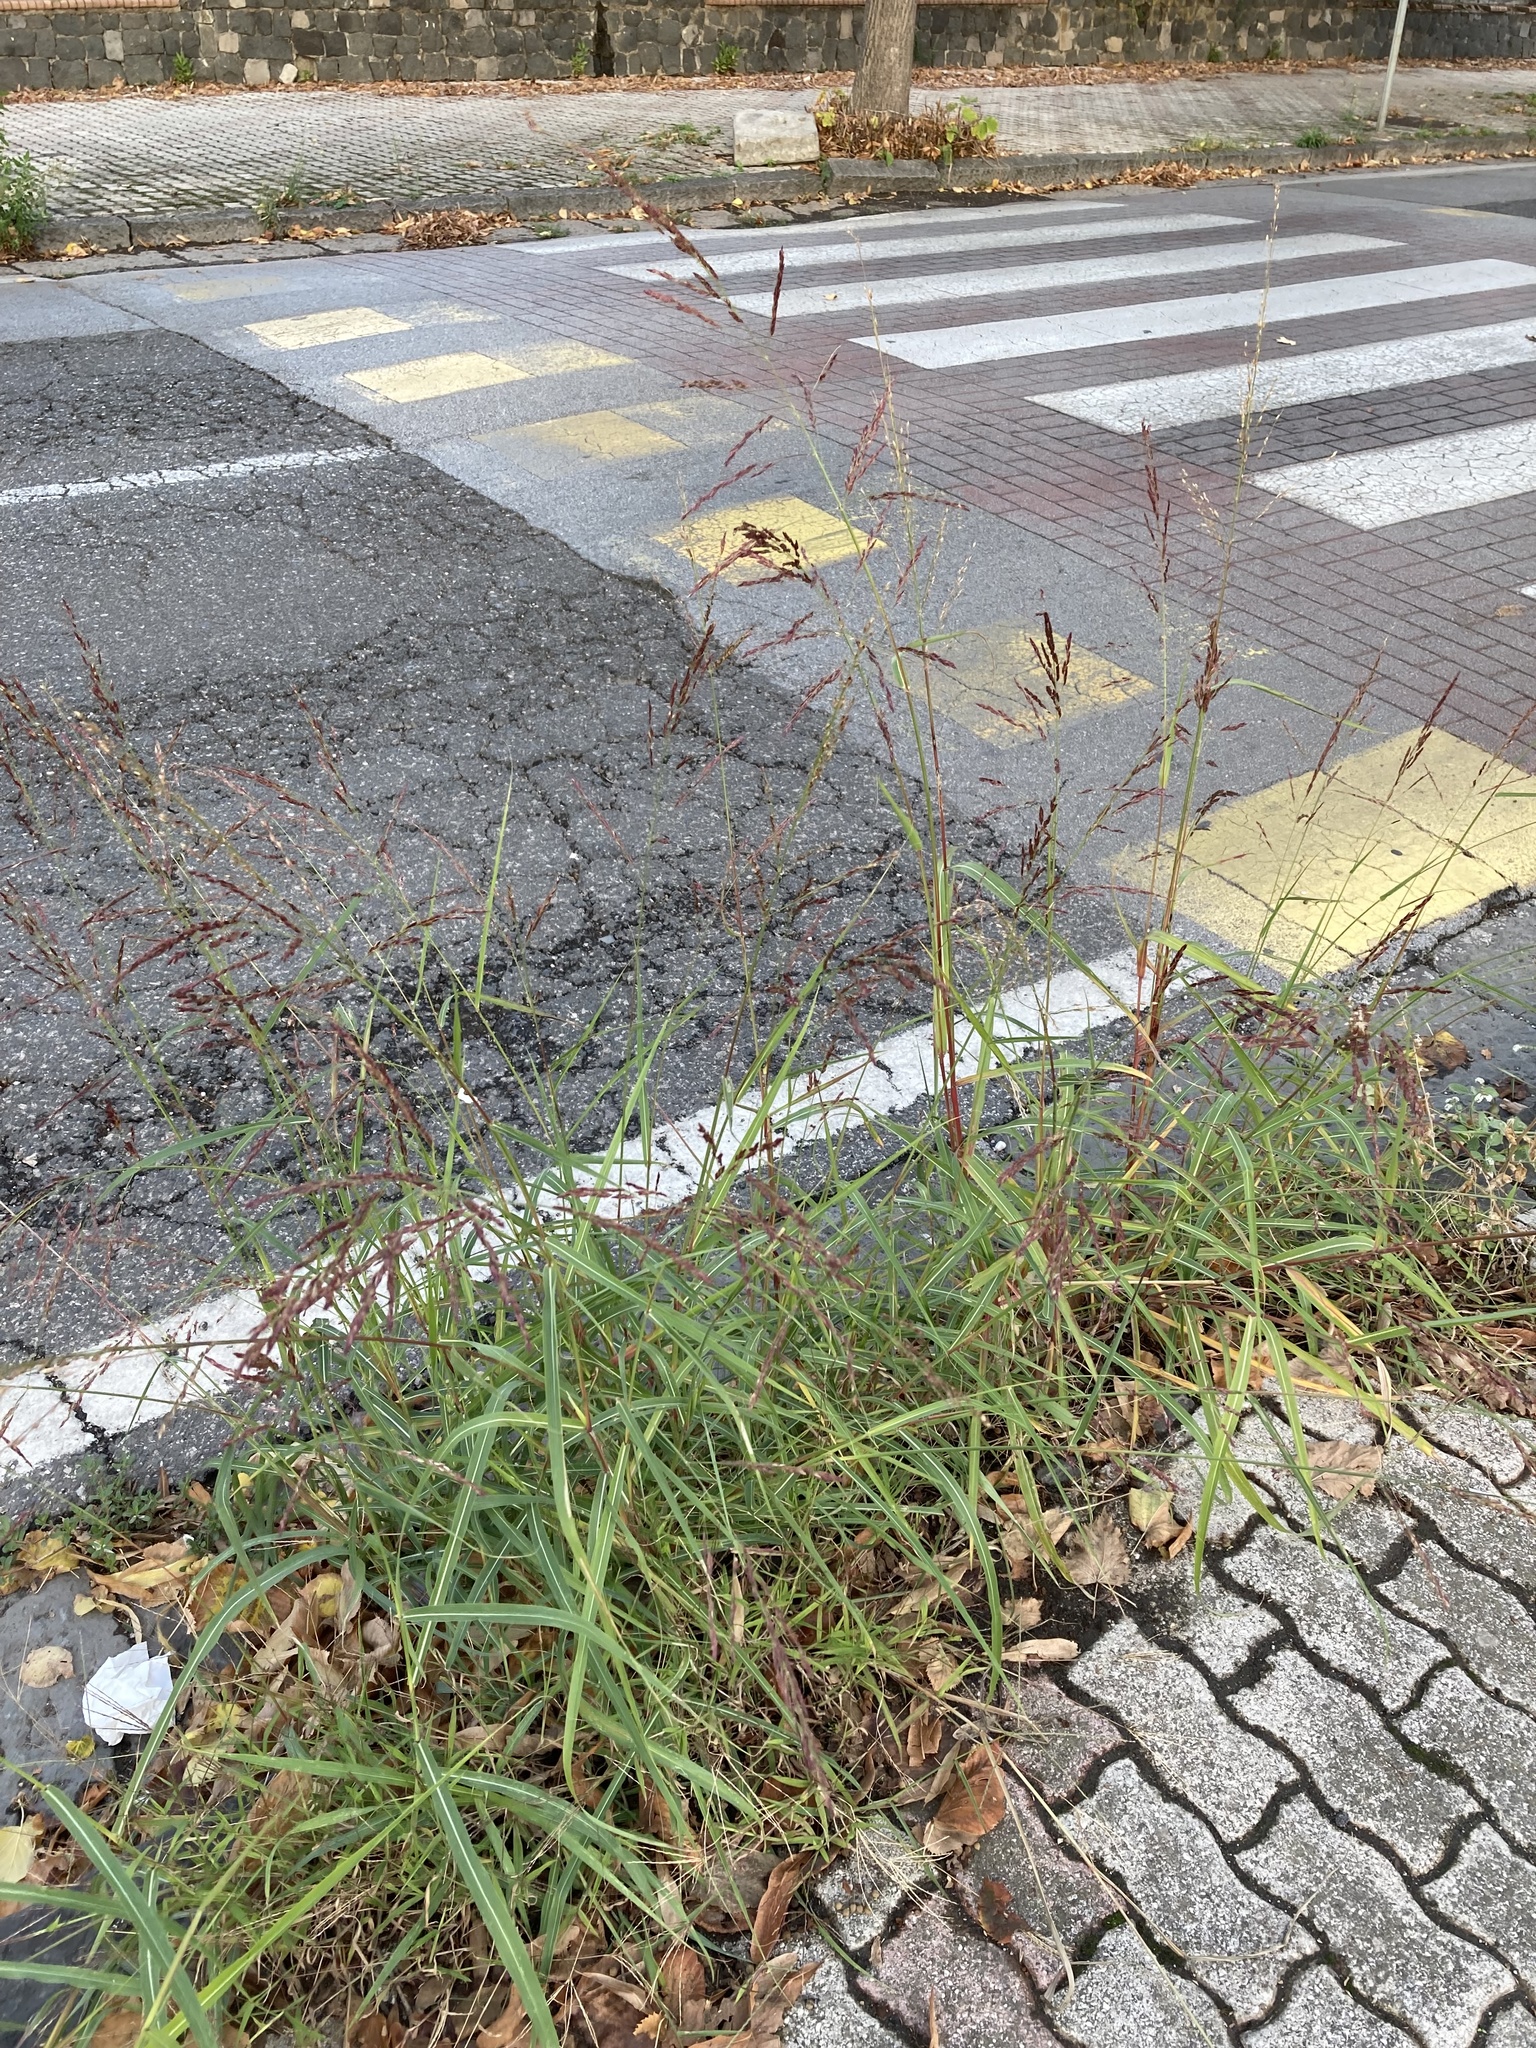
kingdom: Plantae
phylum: Tracheophyta
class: Liliopsida
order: Poales
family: Poaceae
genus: Sorghum
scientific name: Sorghum halepense
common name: Johnson-grass
